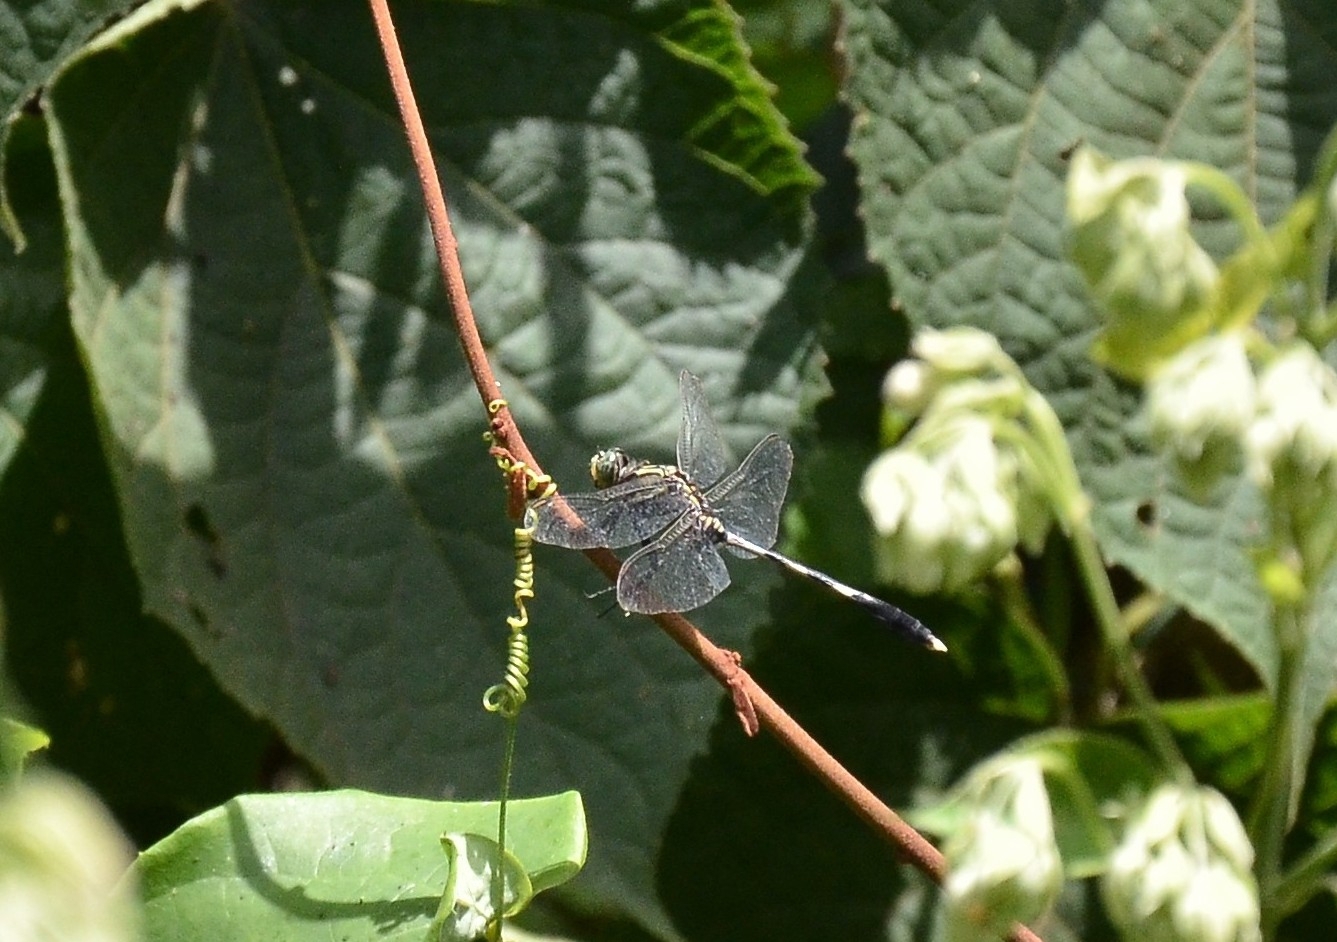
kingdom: Animalia
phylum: Arthropoda
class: Insecta
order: Odonata
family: Libellulidae
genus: Orthetrum
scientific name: Orthetrum sabina
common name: Slender skimmer
